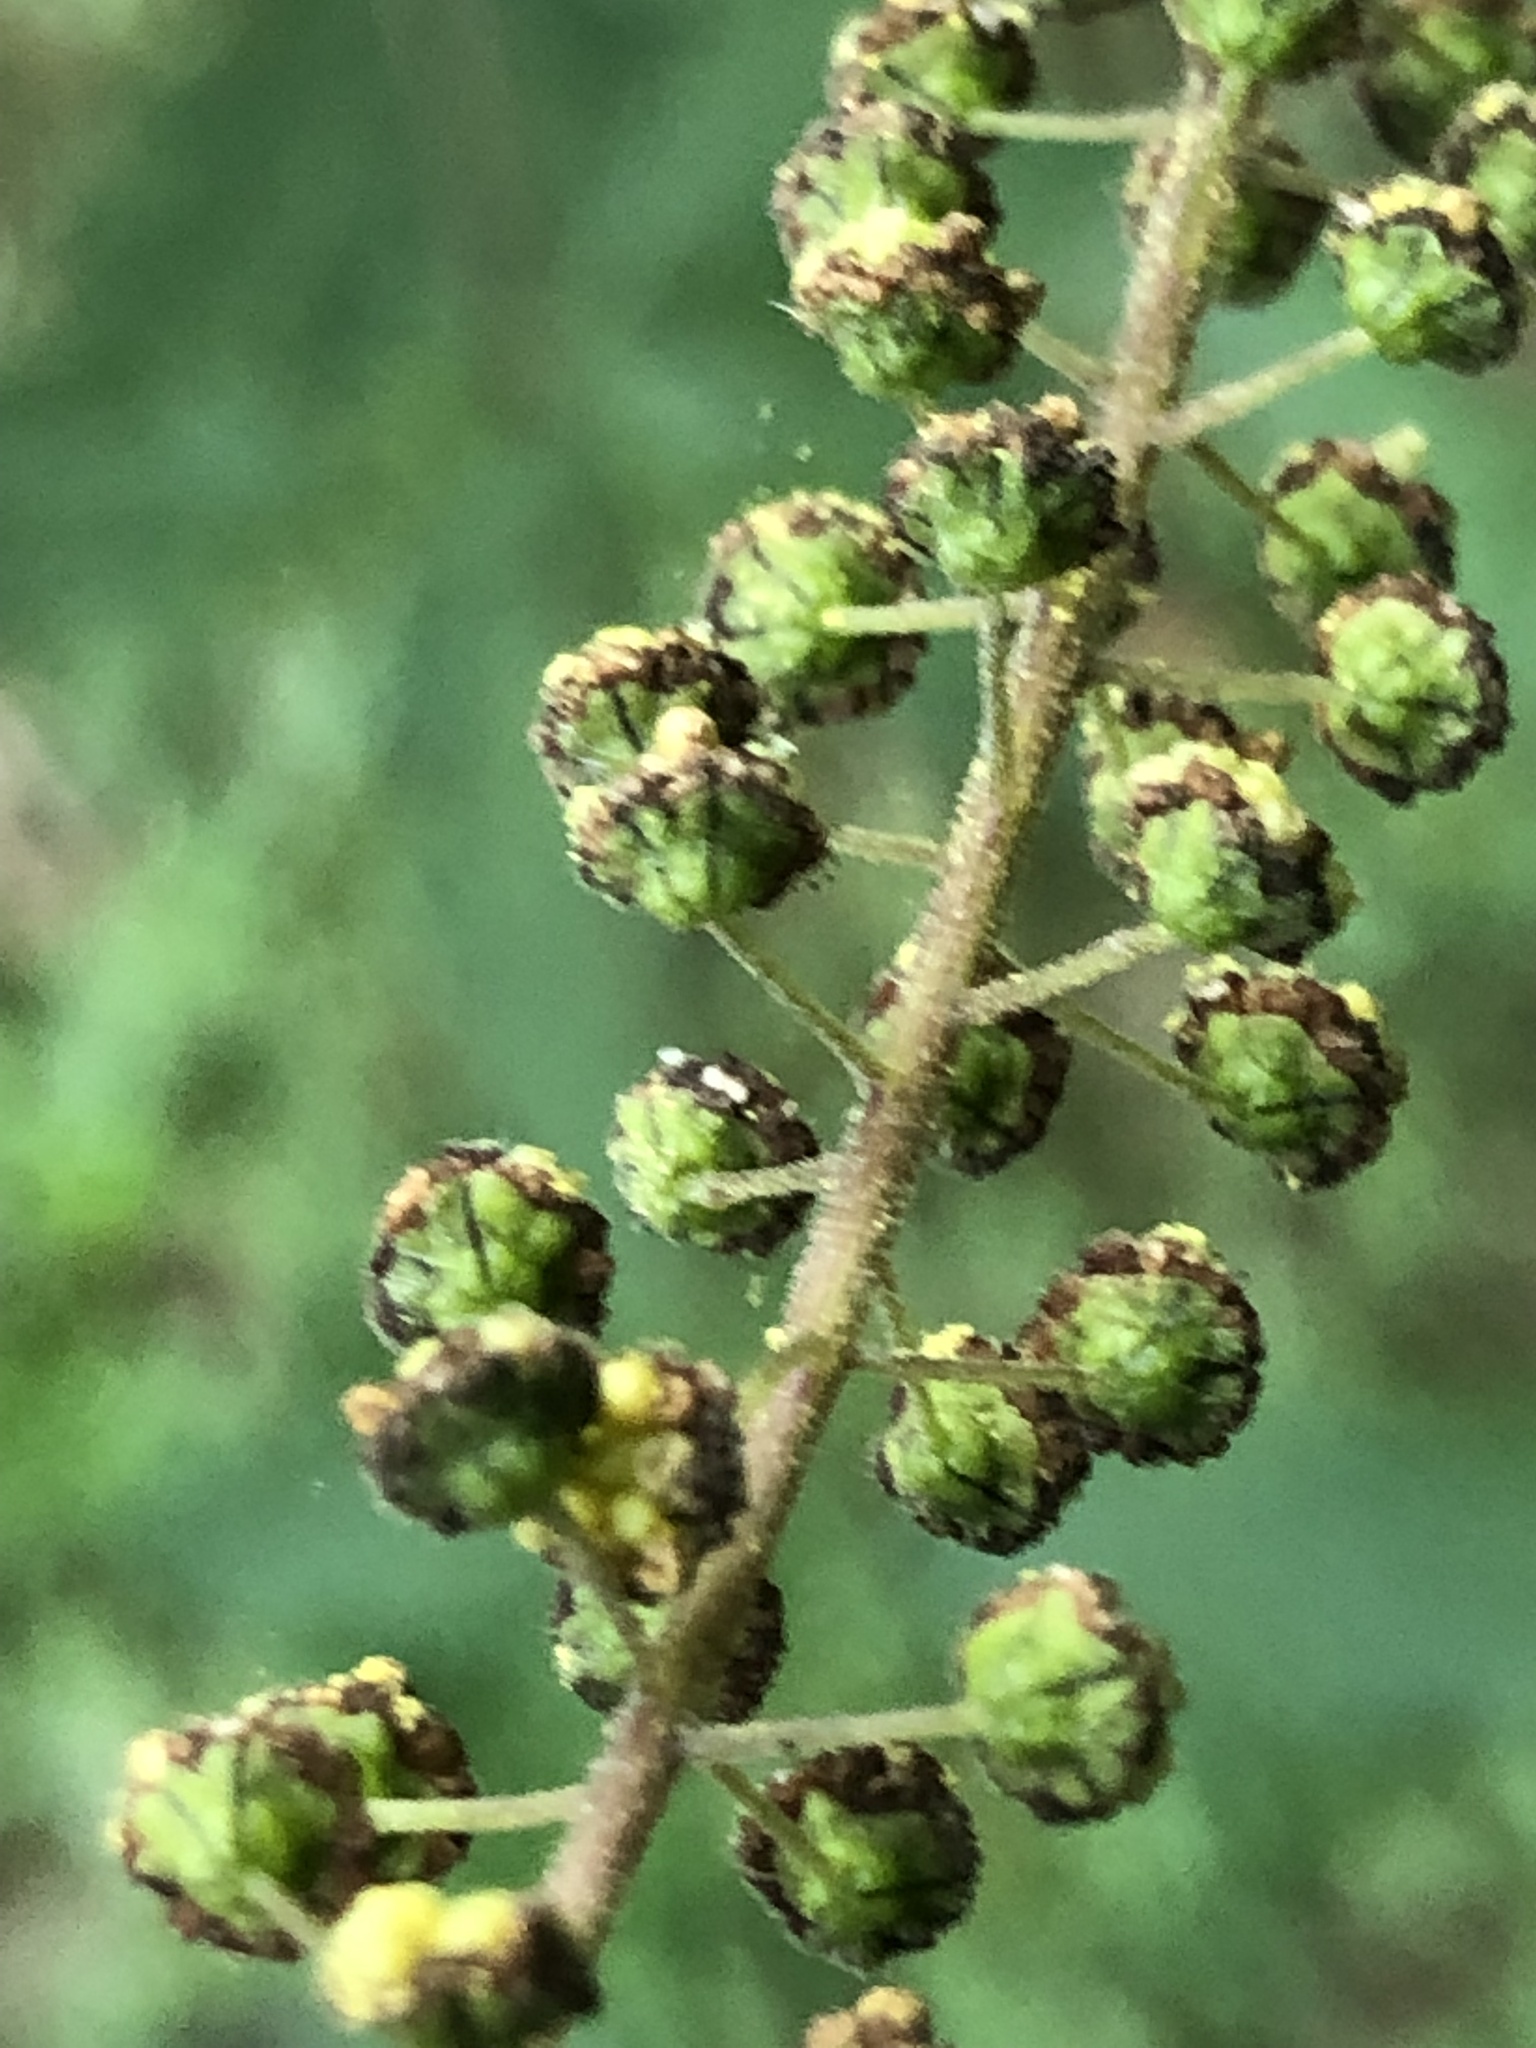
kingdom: Plantae
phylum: Tracheophyta
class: Magnoliopsida
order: Asterales
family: Asteraceae
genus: Ambrosia
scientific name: Ambrosia trifida
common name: Giant ragweed
